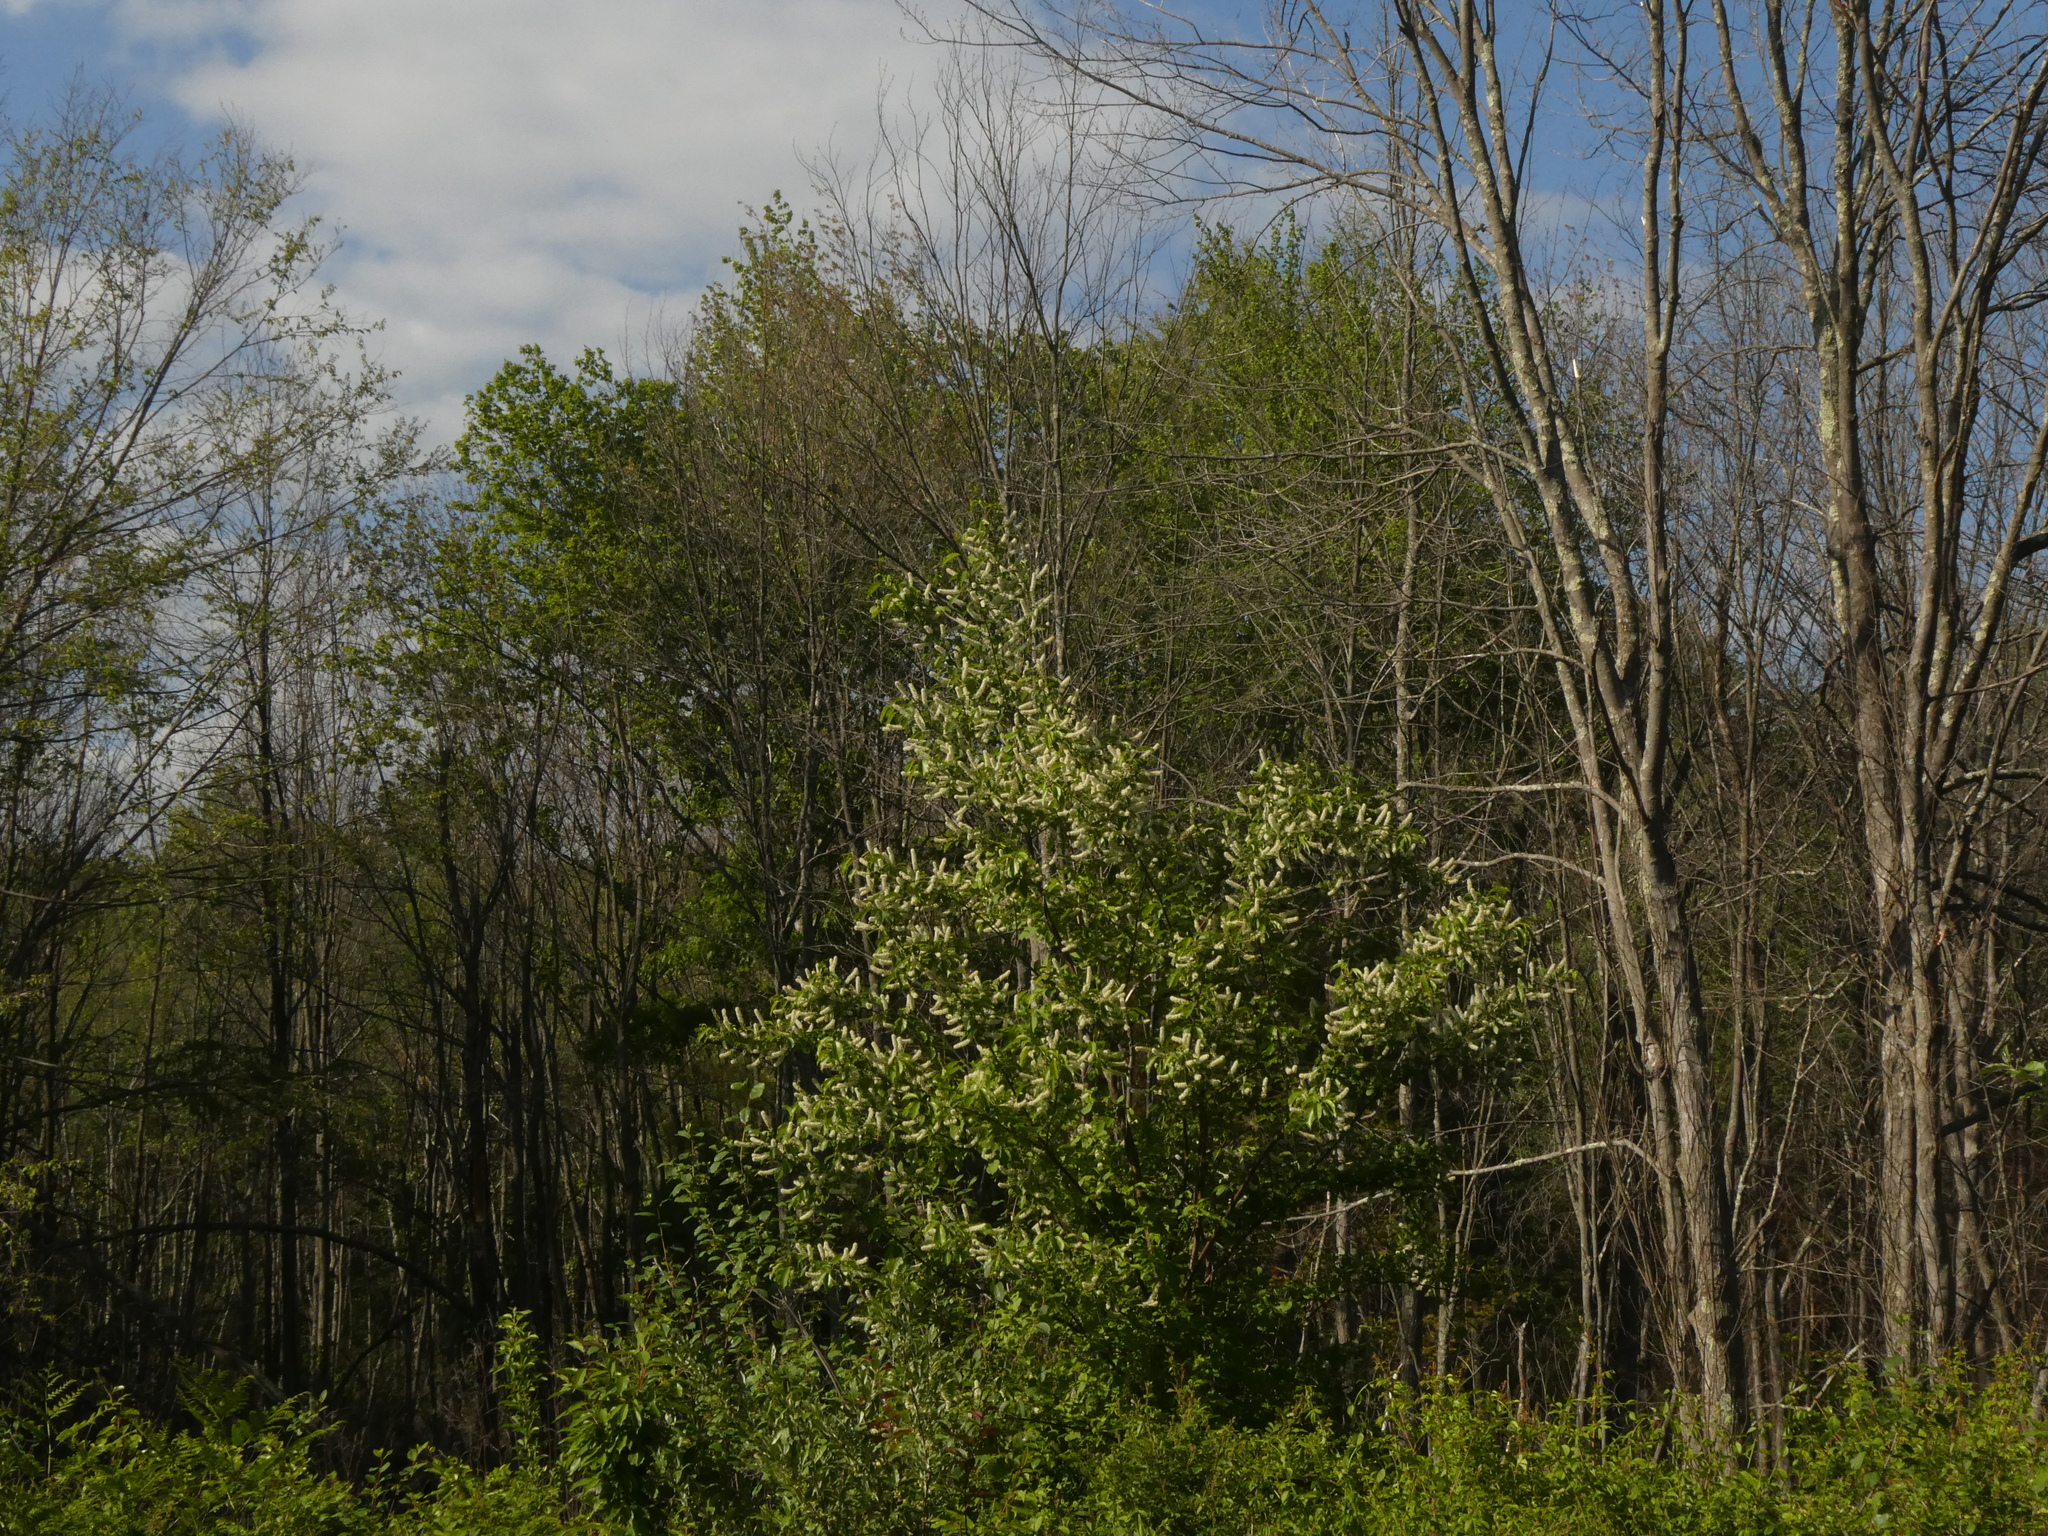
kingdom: Plantae
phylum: Tracheophyta
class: Magnoliopsida
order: Rosales
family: Rosaceae
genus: Prunus
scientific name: Prunus serotina
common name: Black cherry
